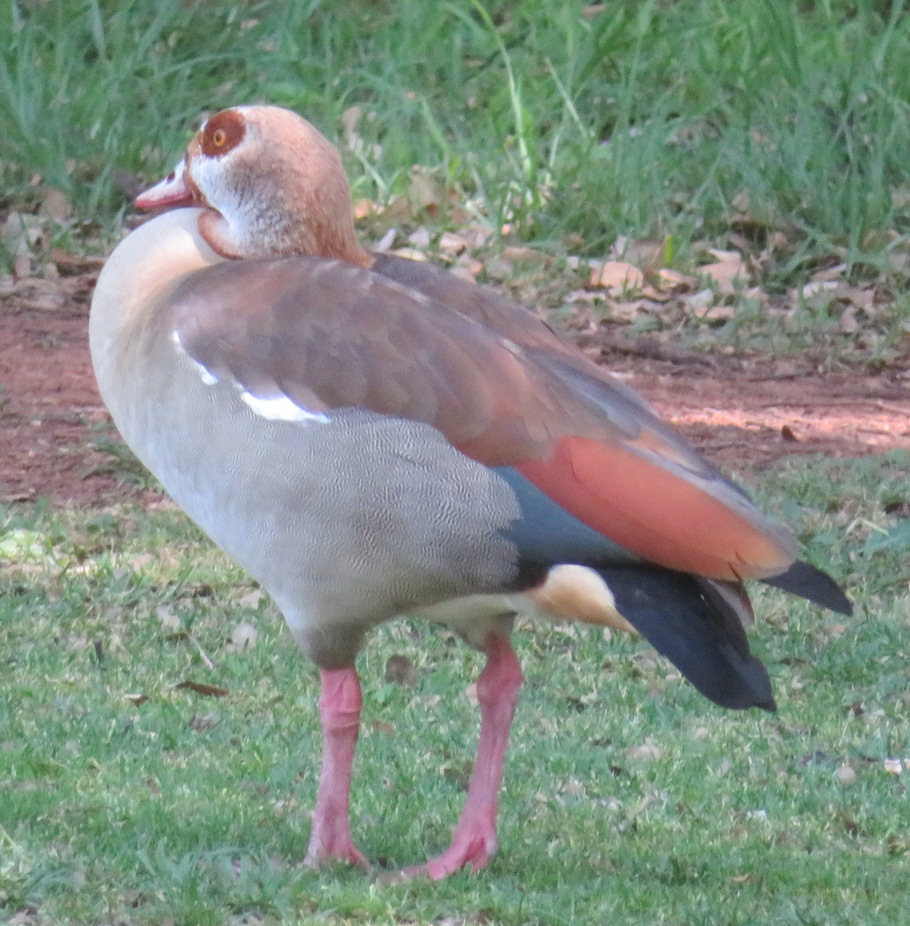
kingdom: Animalia
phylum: Chordata
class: Aves
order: Anseriformes
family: Anatidae
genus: Alopochen
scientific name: Alopochen aegyptiaca
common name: Egyptian goose
